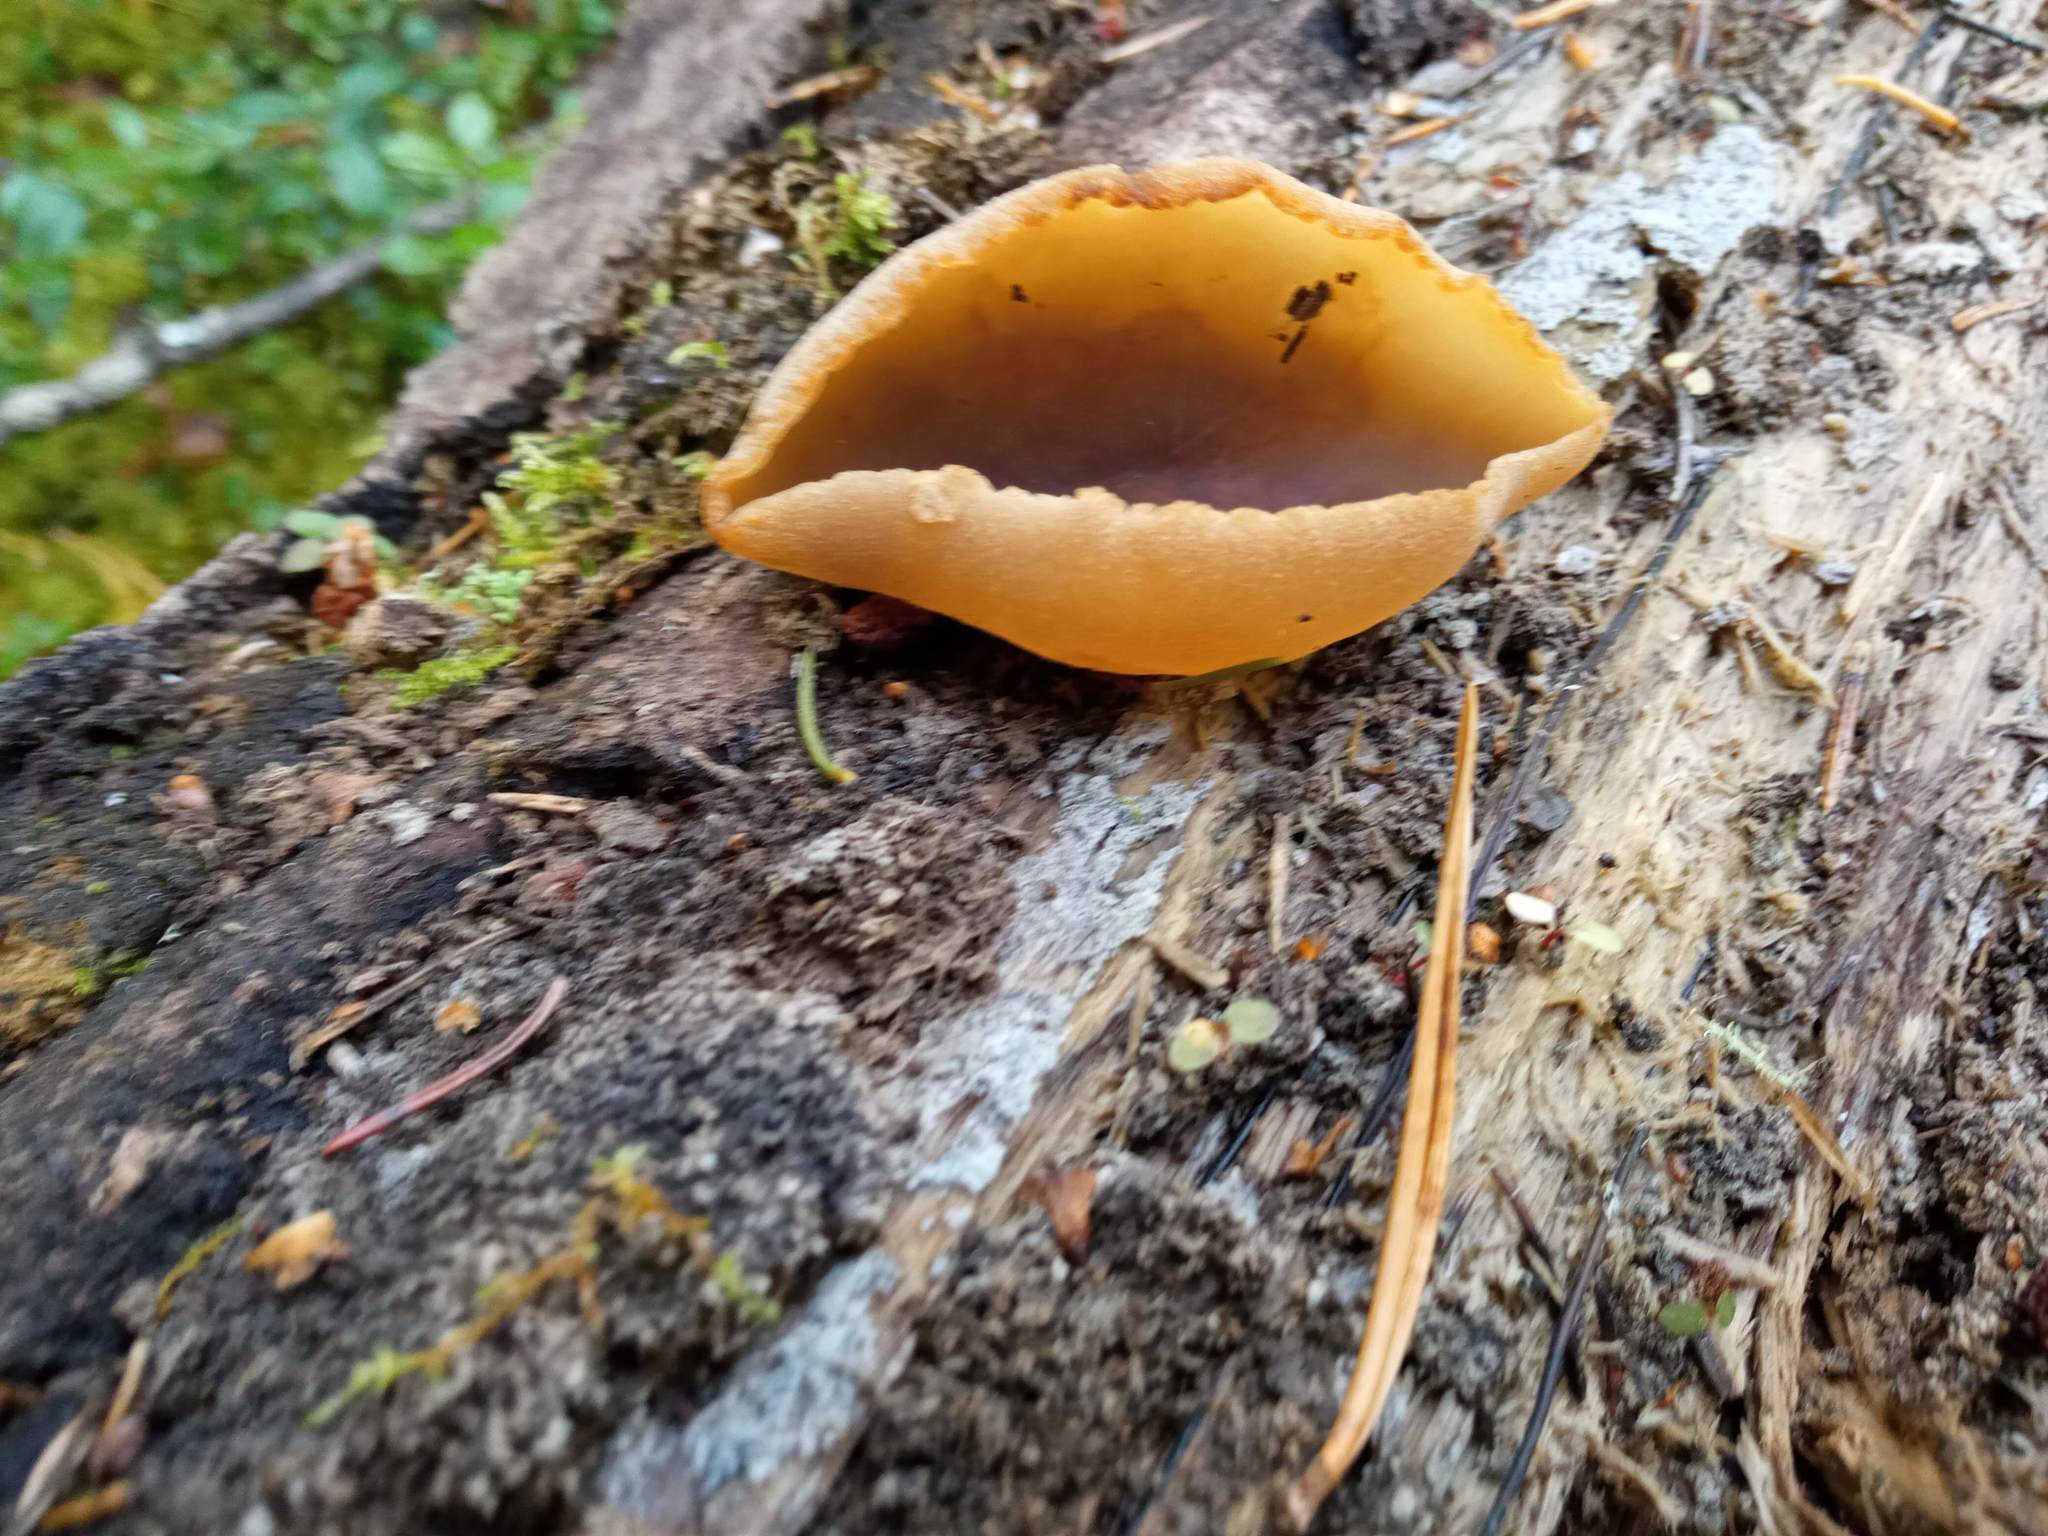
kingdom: Fungi
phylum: Ascomycota
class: Pezizomycetes
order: Pezizales
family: Pezizaceae
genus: Peziza
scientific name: Peziza varia
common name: Layered cup
